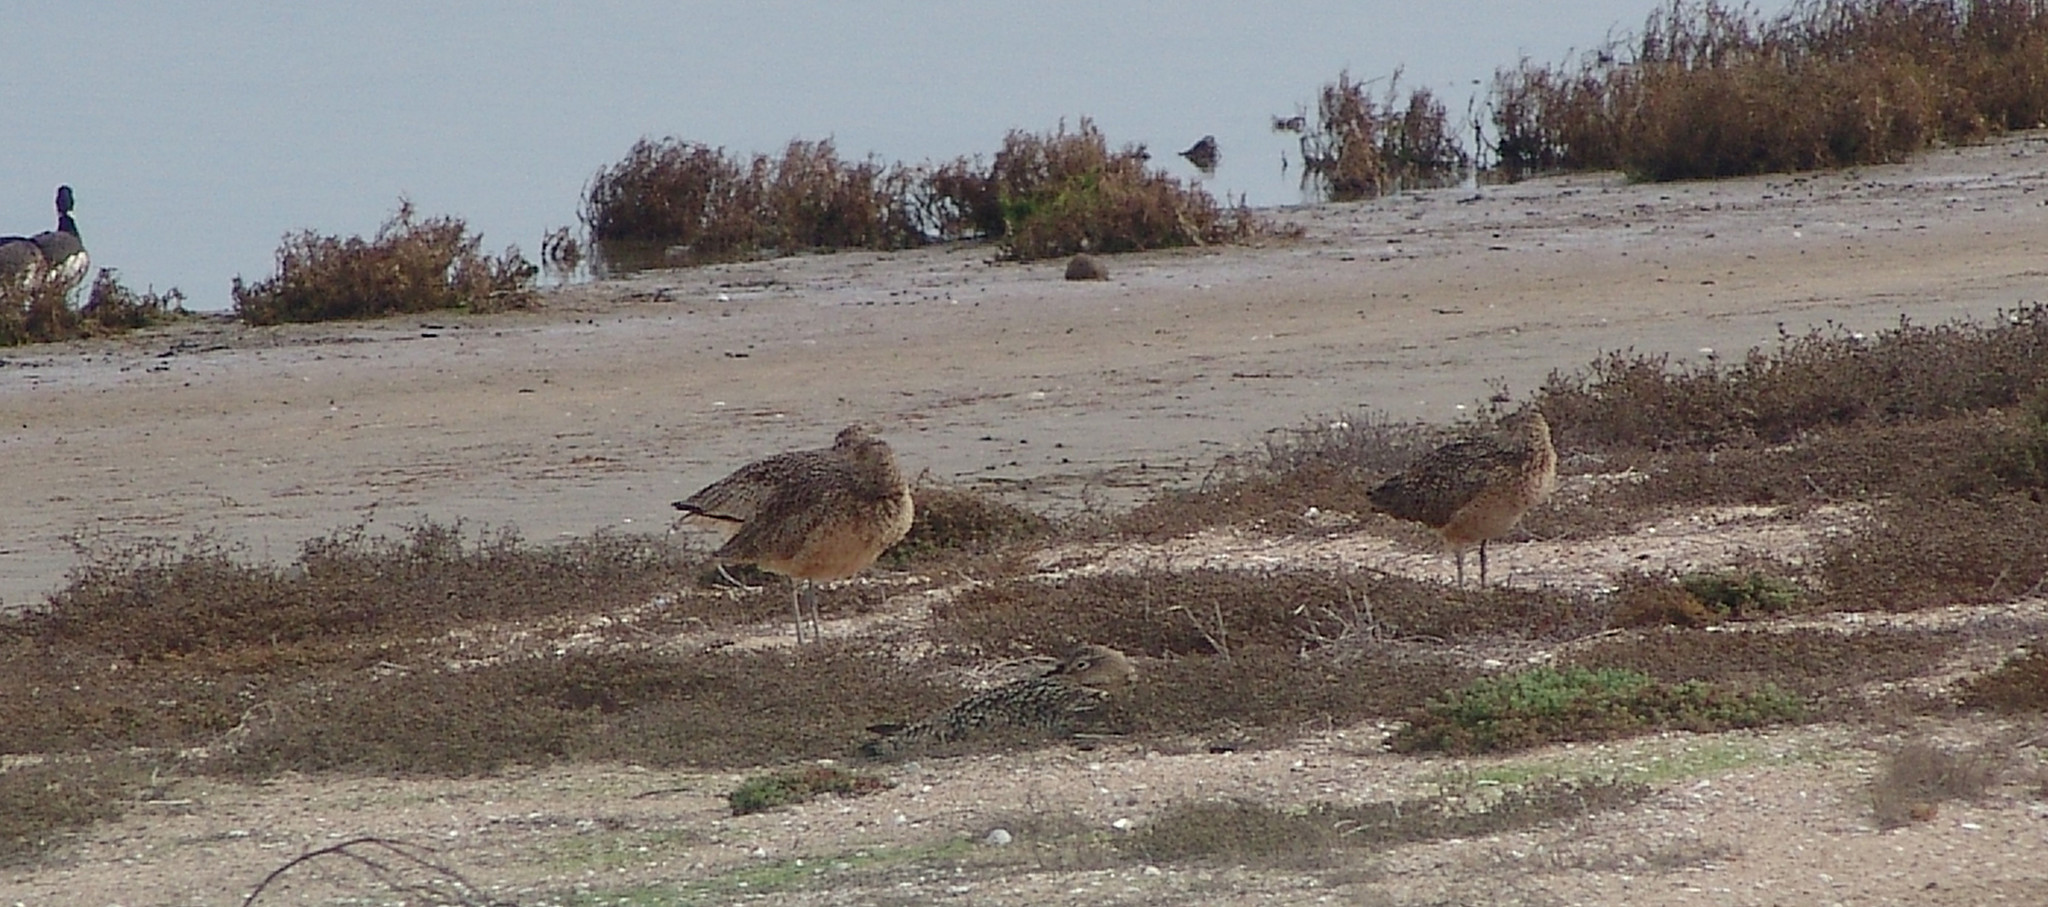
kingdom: Animalia
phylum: Chordata
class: Aves
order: Charadriiformes
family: Scolopacidae
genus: Limosa
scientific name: Limosa fedoa
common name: Marbled godwit
